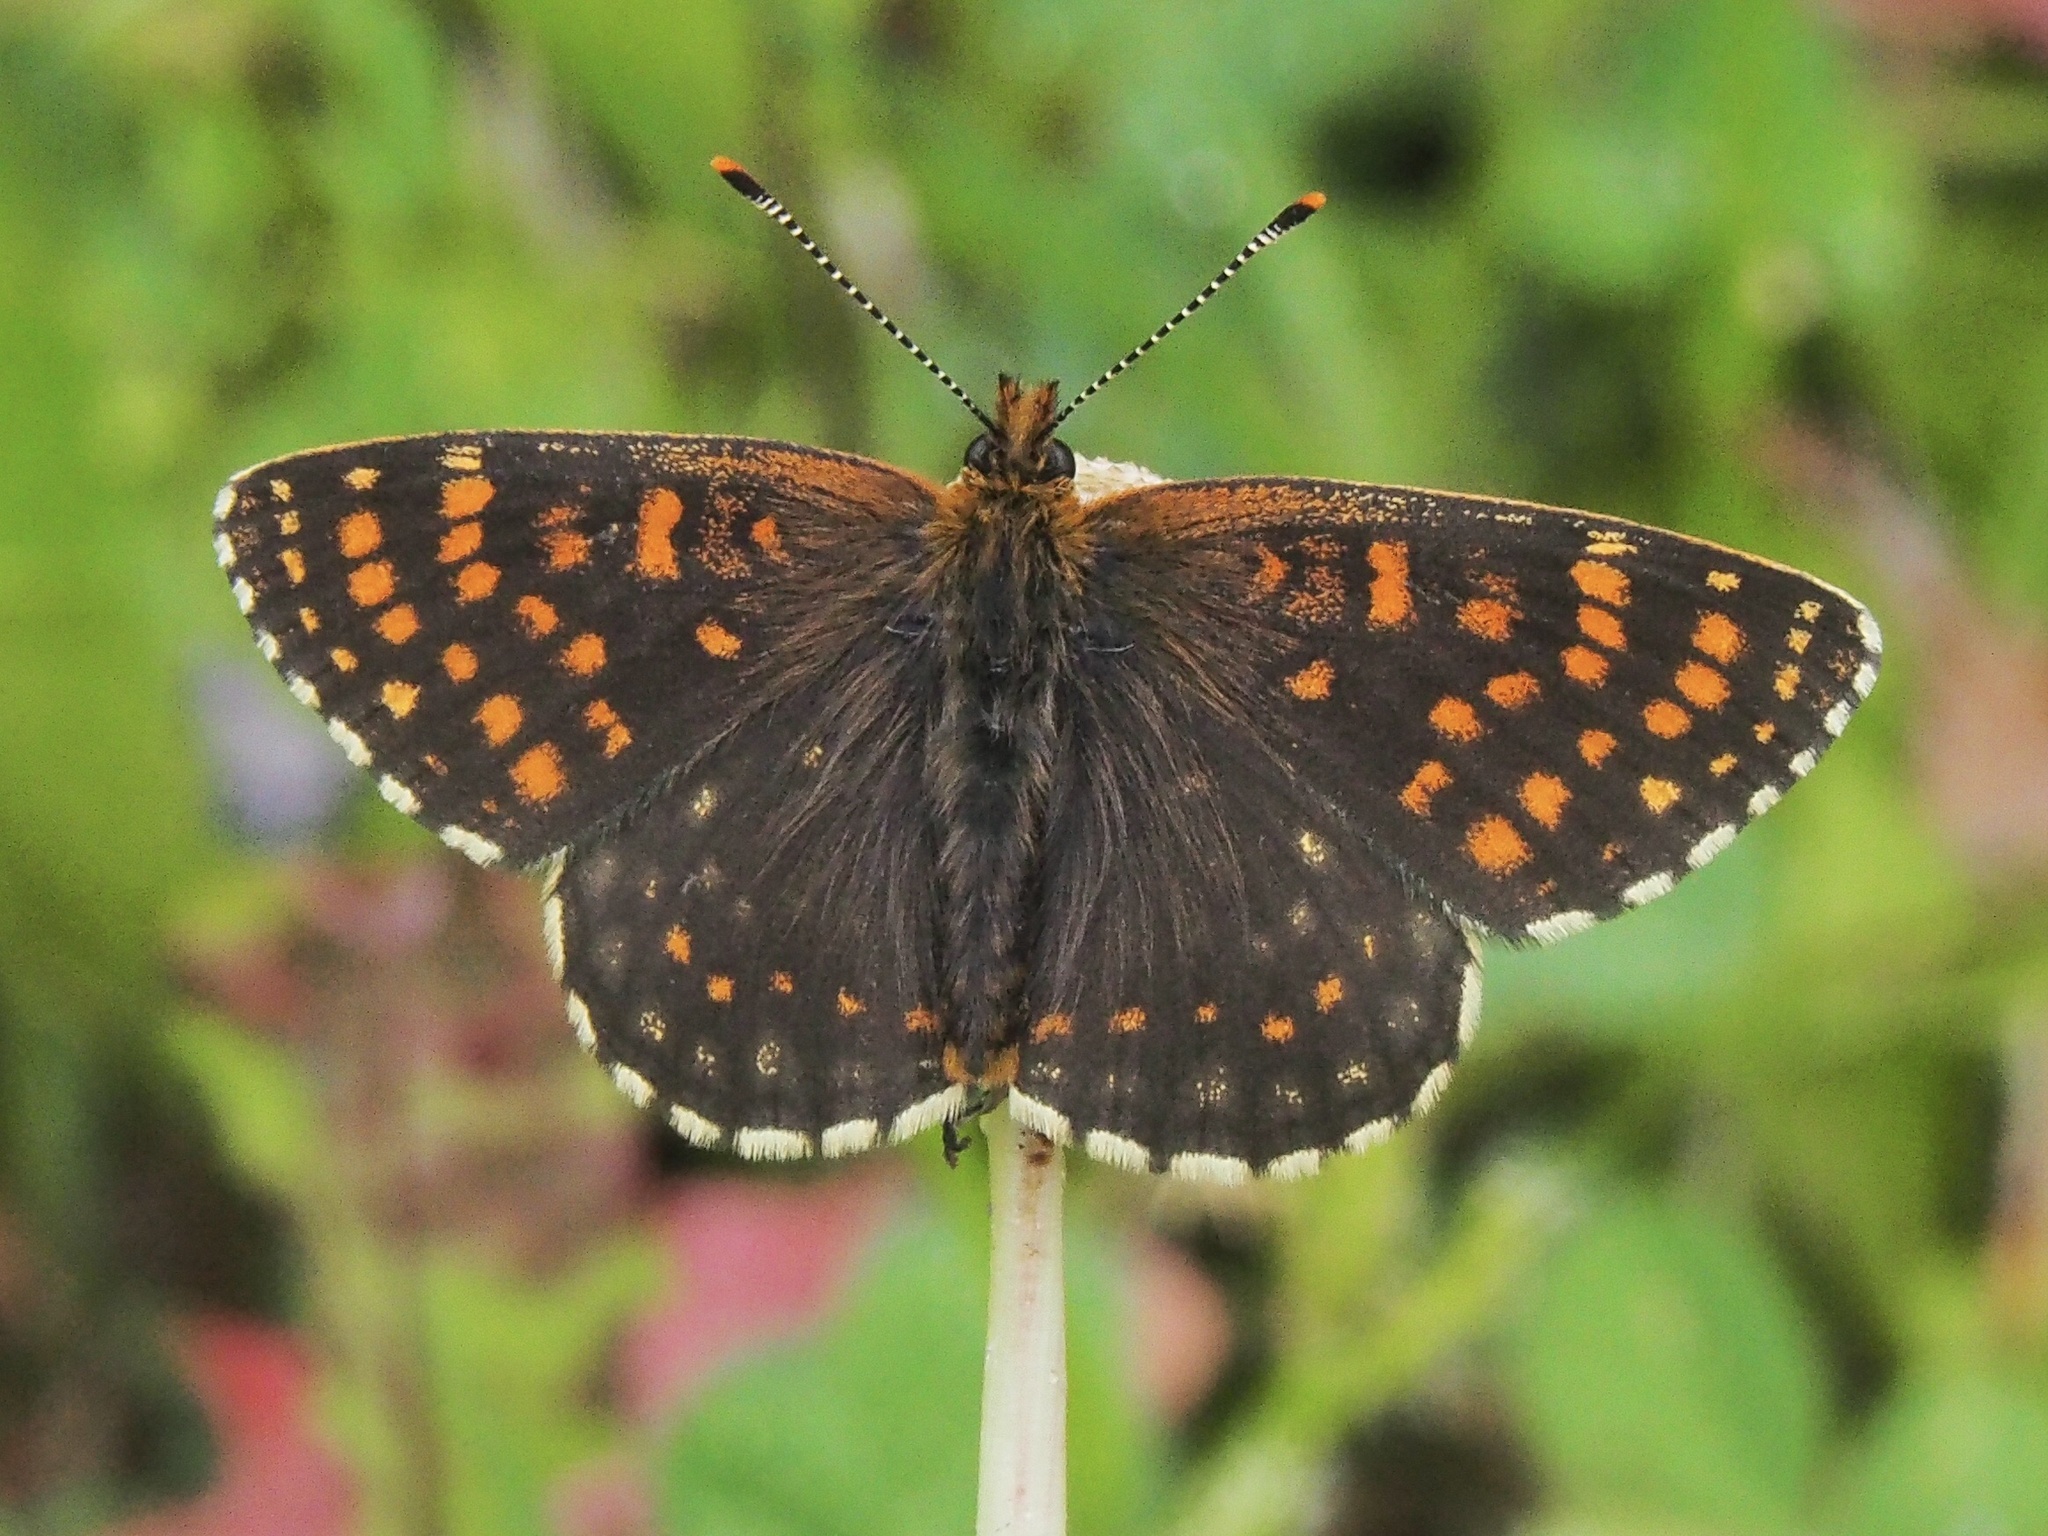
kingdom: Animalia
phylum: Arthropoda
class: Insecta
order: Lepidoptera
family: Nymphalidae
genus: Melitaea
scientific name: Melitaea diamina
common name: False heath fritillary
